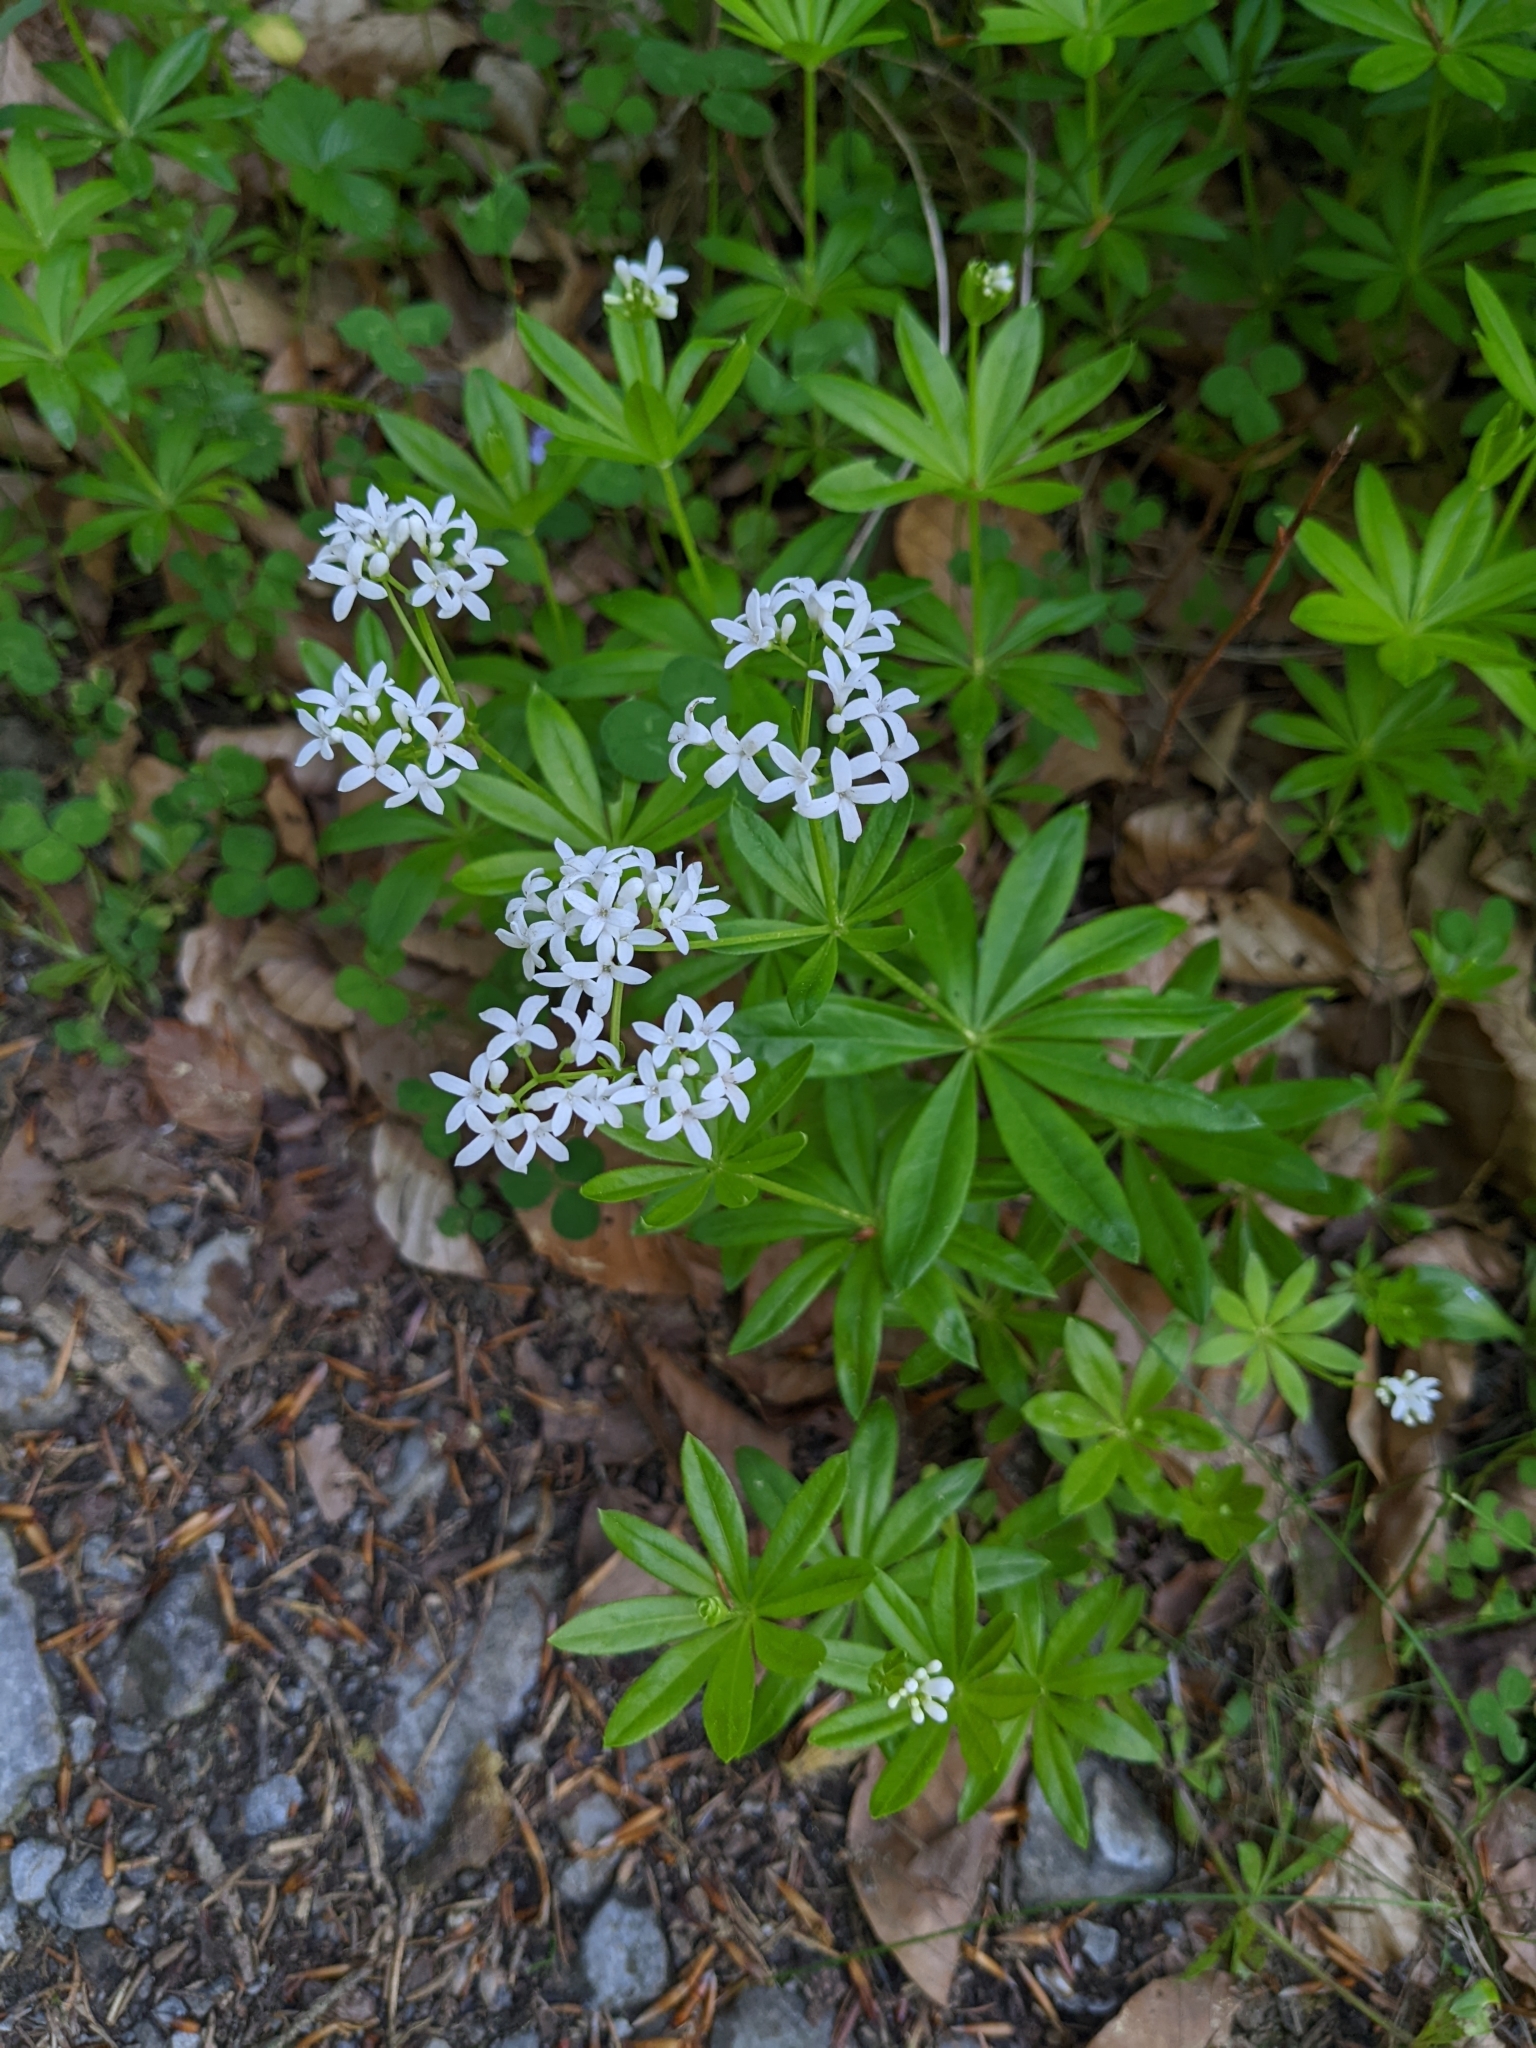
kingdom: Plantae
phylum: Tracheophyta
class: Magnoliopsida
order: Gentianales
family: Rubiaceae
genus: Galium
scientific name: Galium odoratum
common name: Sweet woodruff
